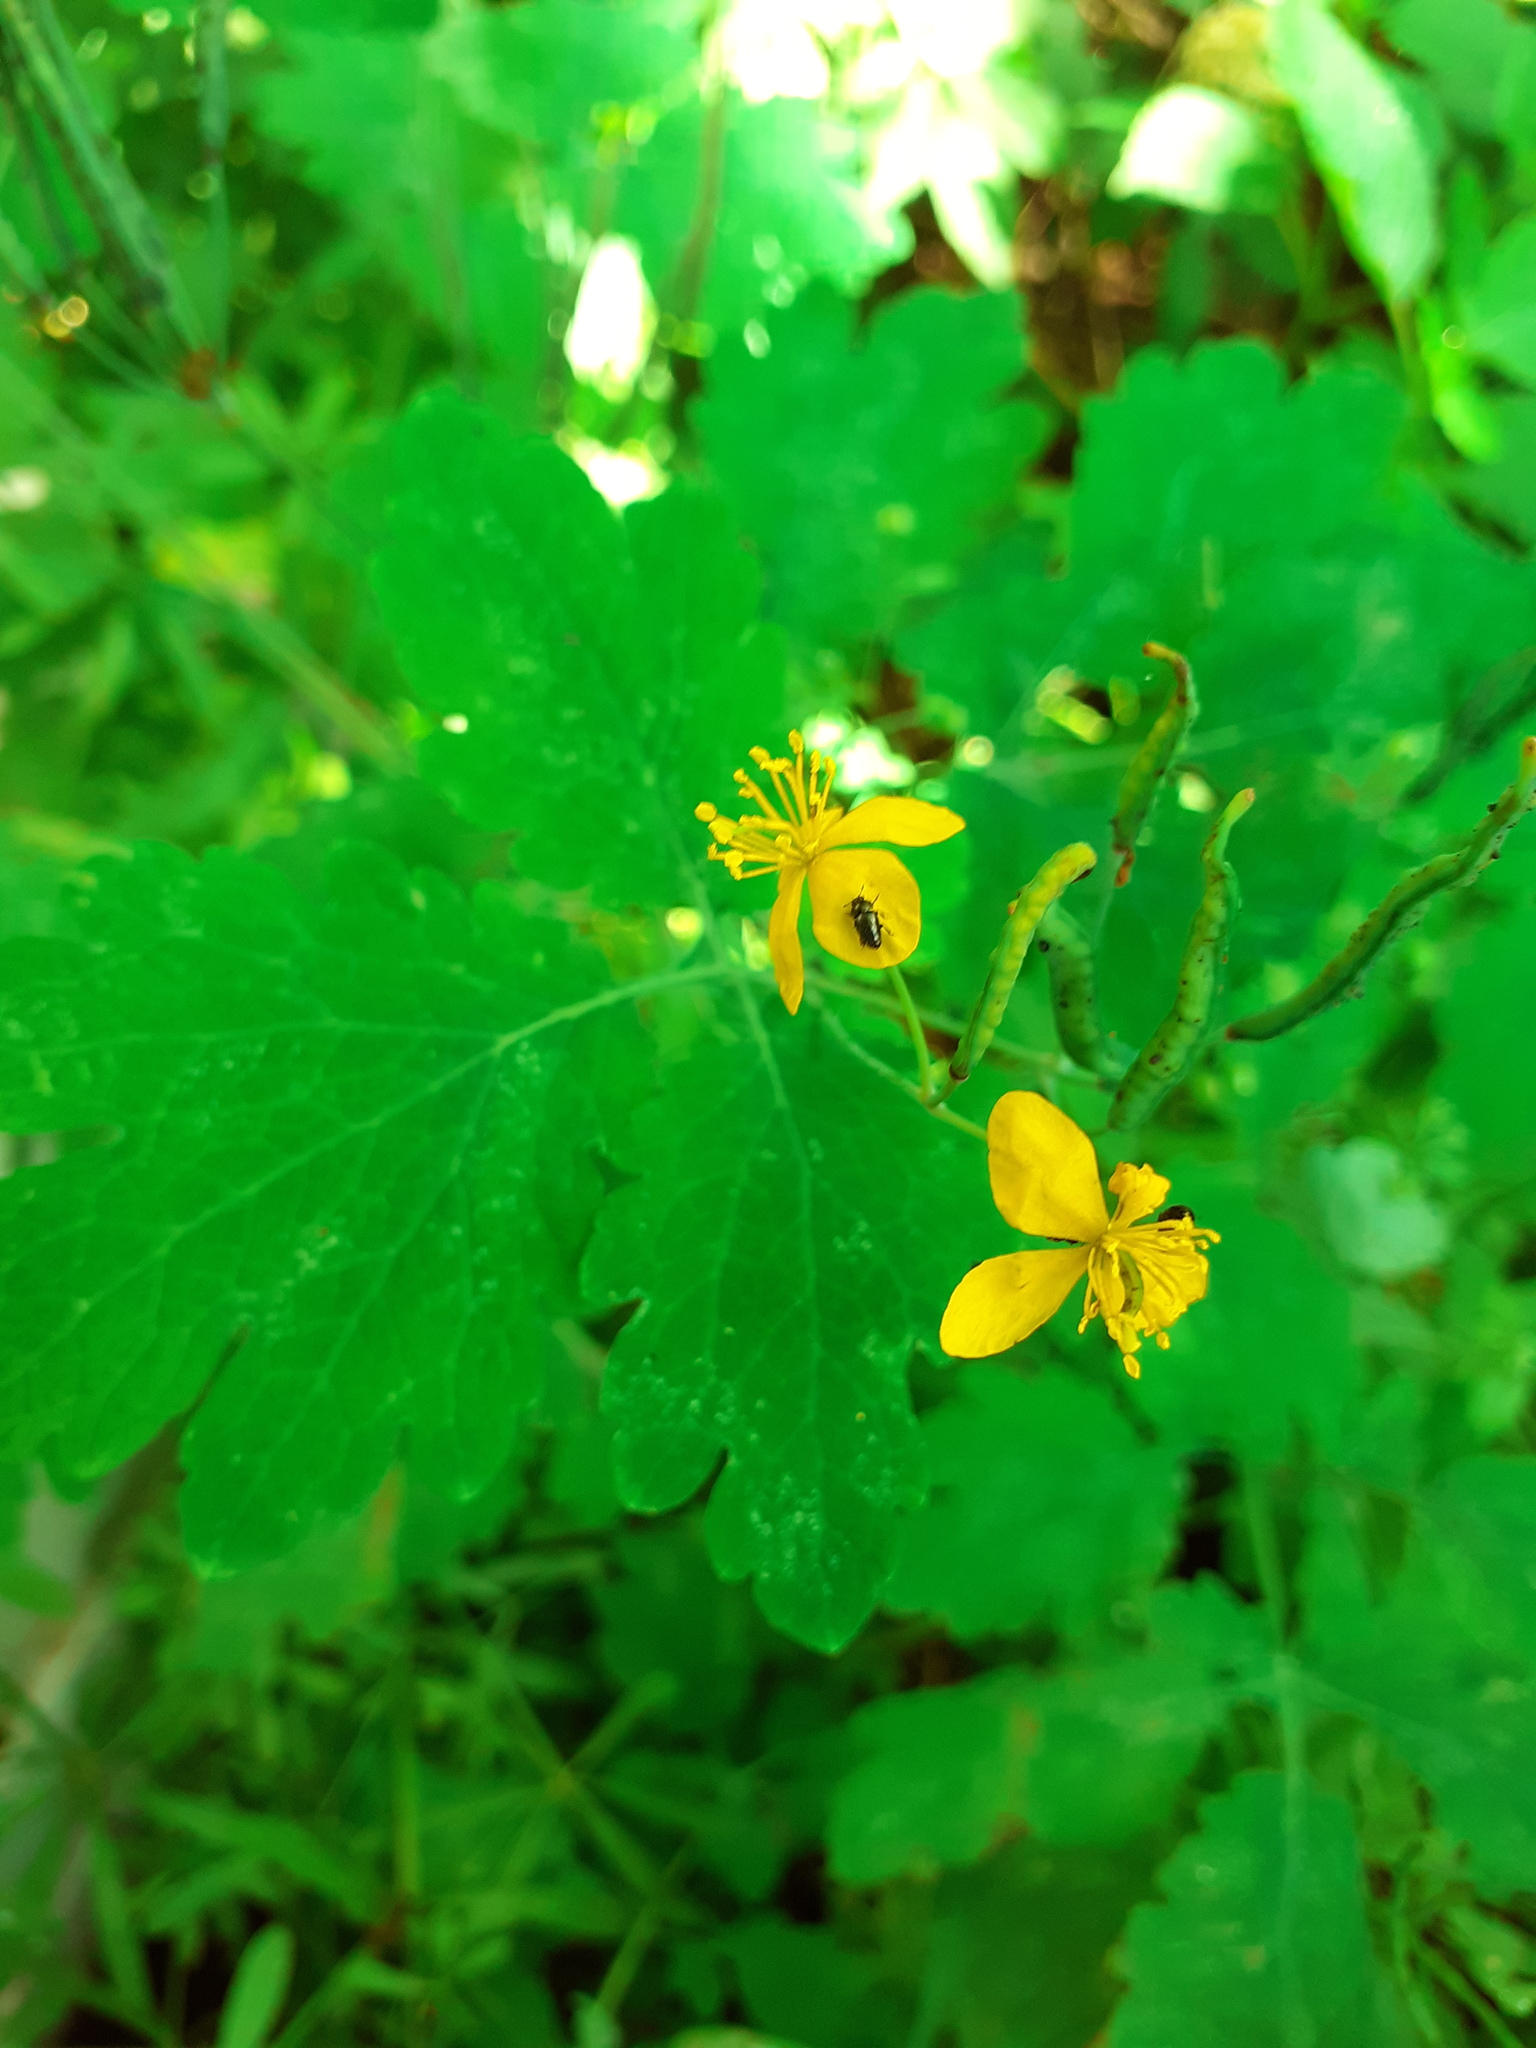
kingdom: Plantae
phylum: Tracheophyta
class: Magnoliopsida
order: Ranunculales
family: Papaveraceae
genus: Chelidonium
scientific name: Chelidonium majus
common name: Greater celandine
